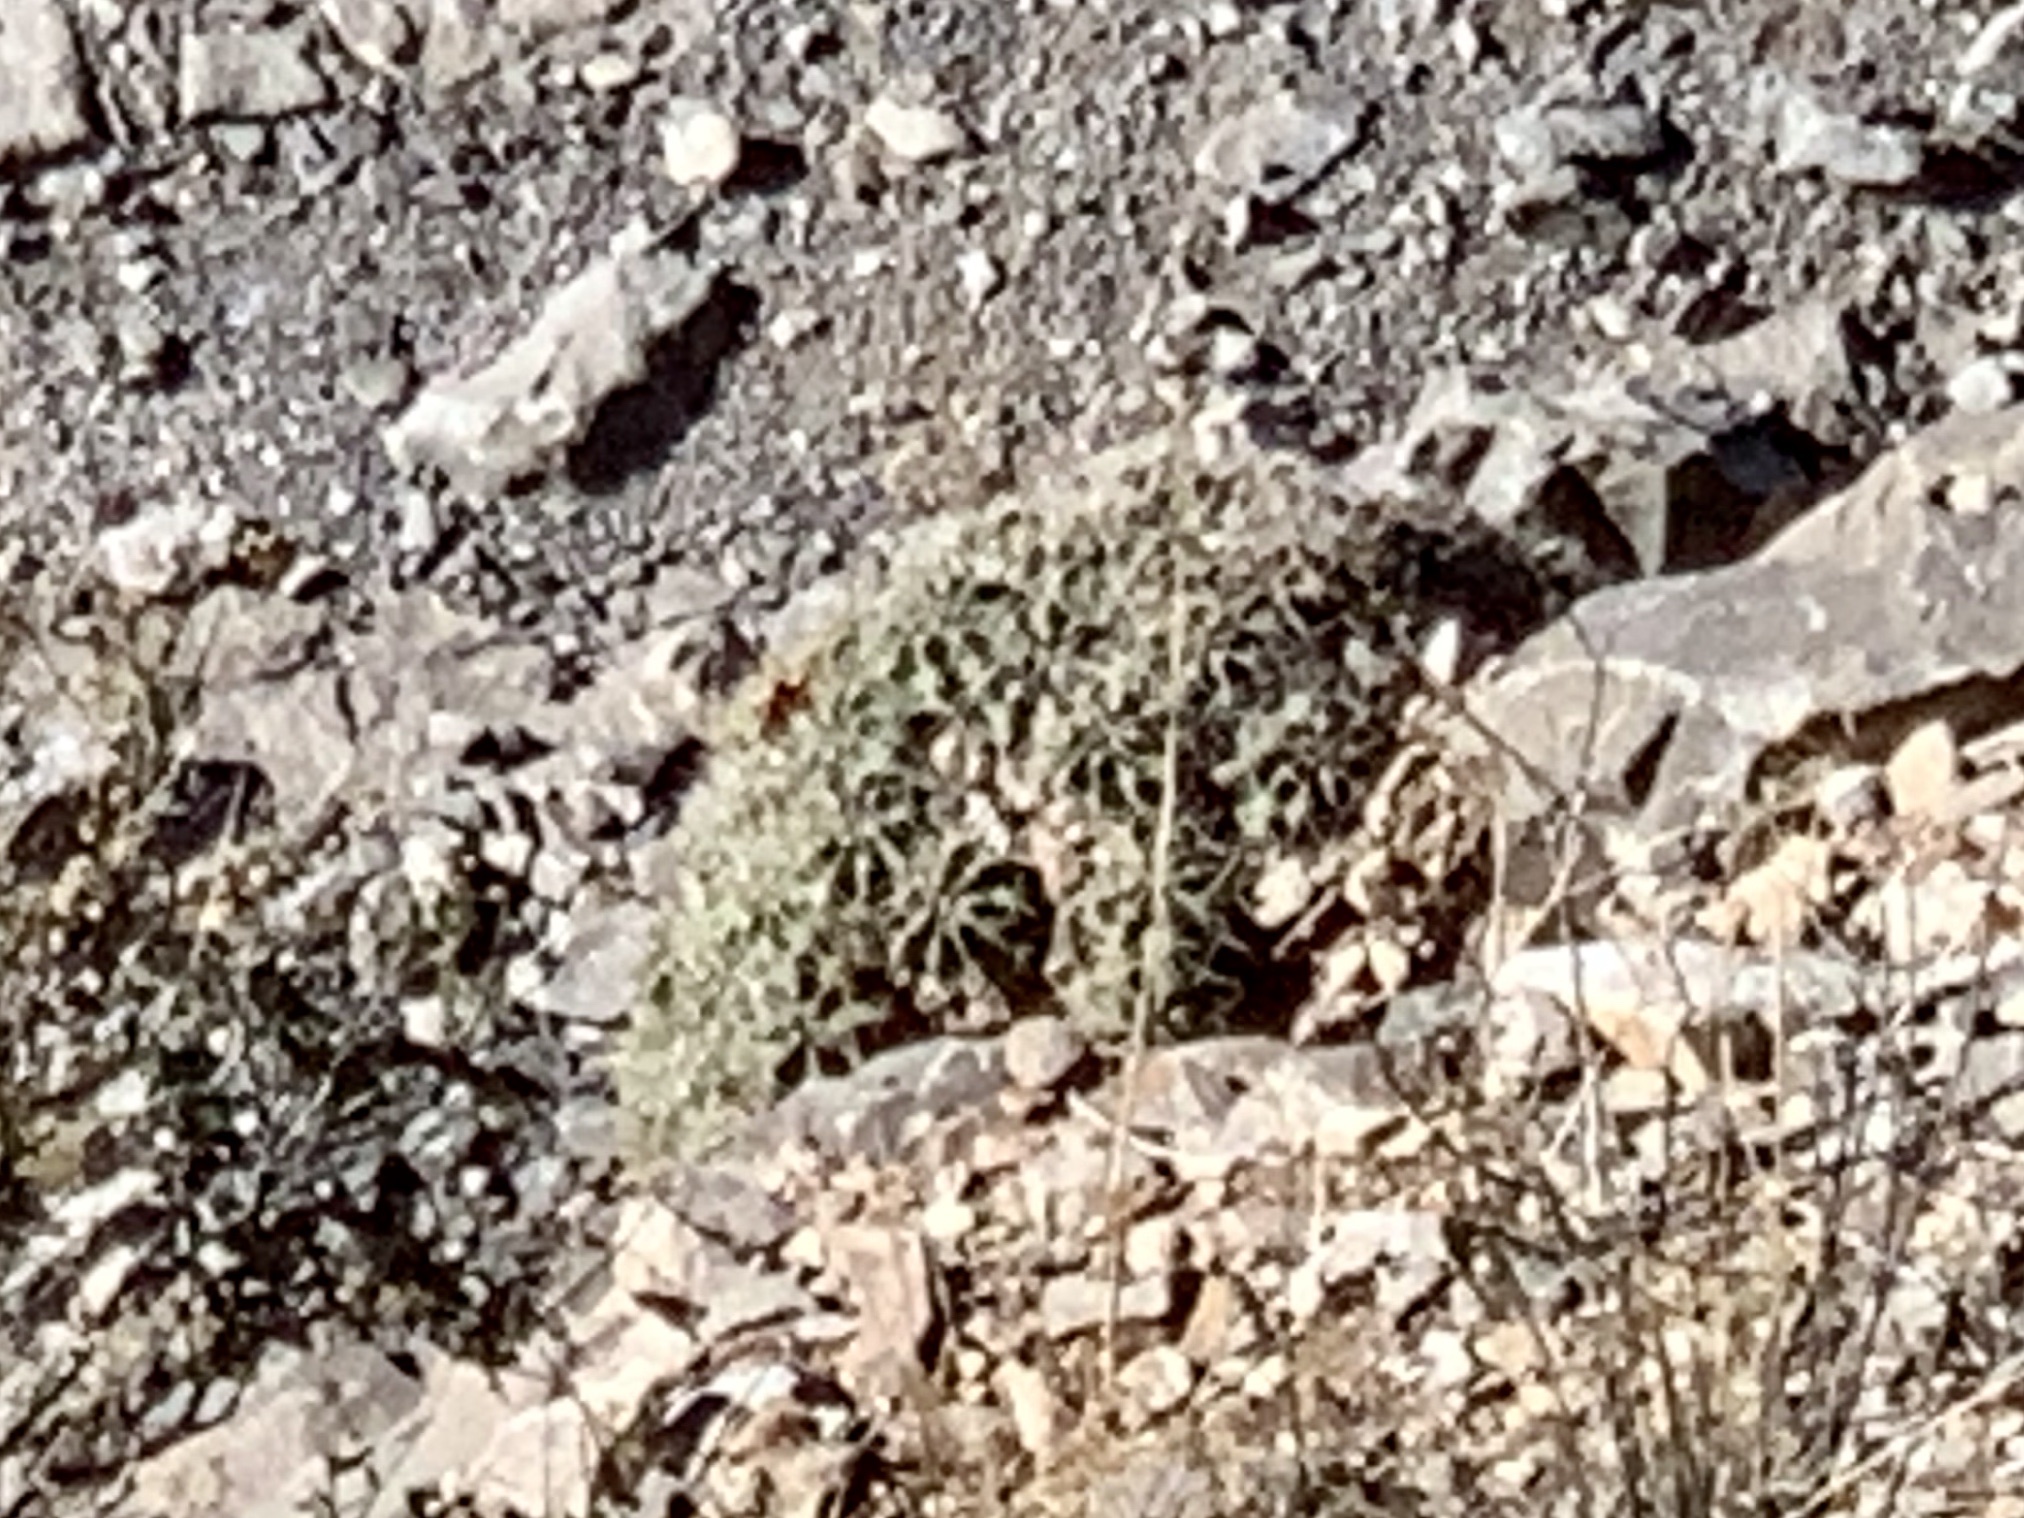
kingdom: Plantae
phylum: Tracheophyta
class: Magnoliopsida
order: Caryophyllales
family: Cactaceae
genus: Echinocereus
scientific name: Echinocereus coccineus
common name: Scarlet hedgehog cactus
